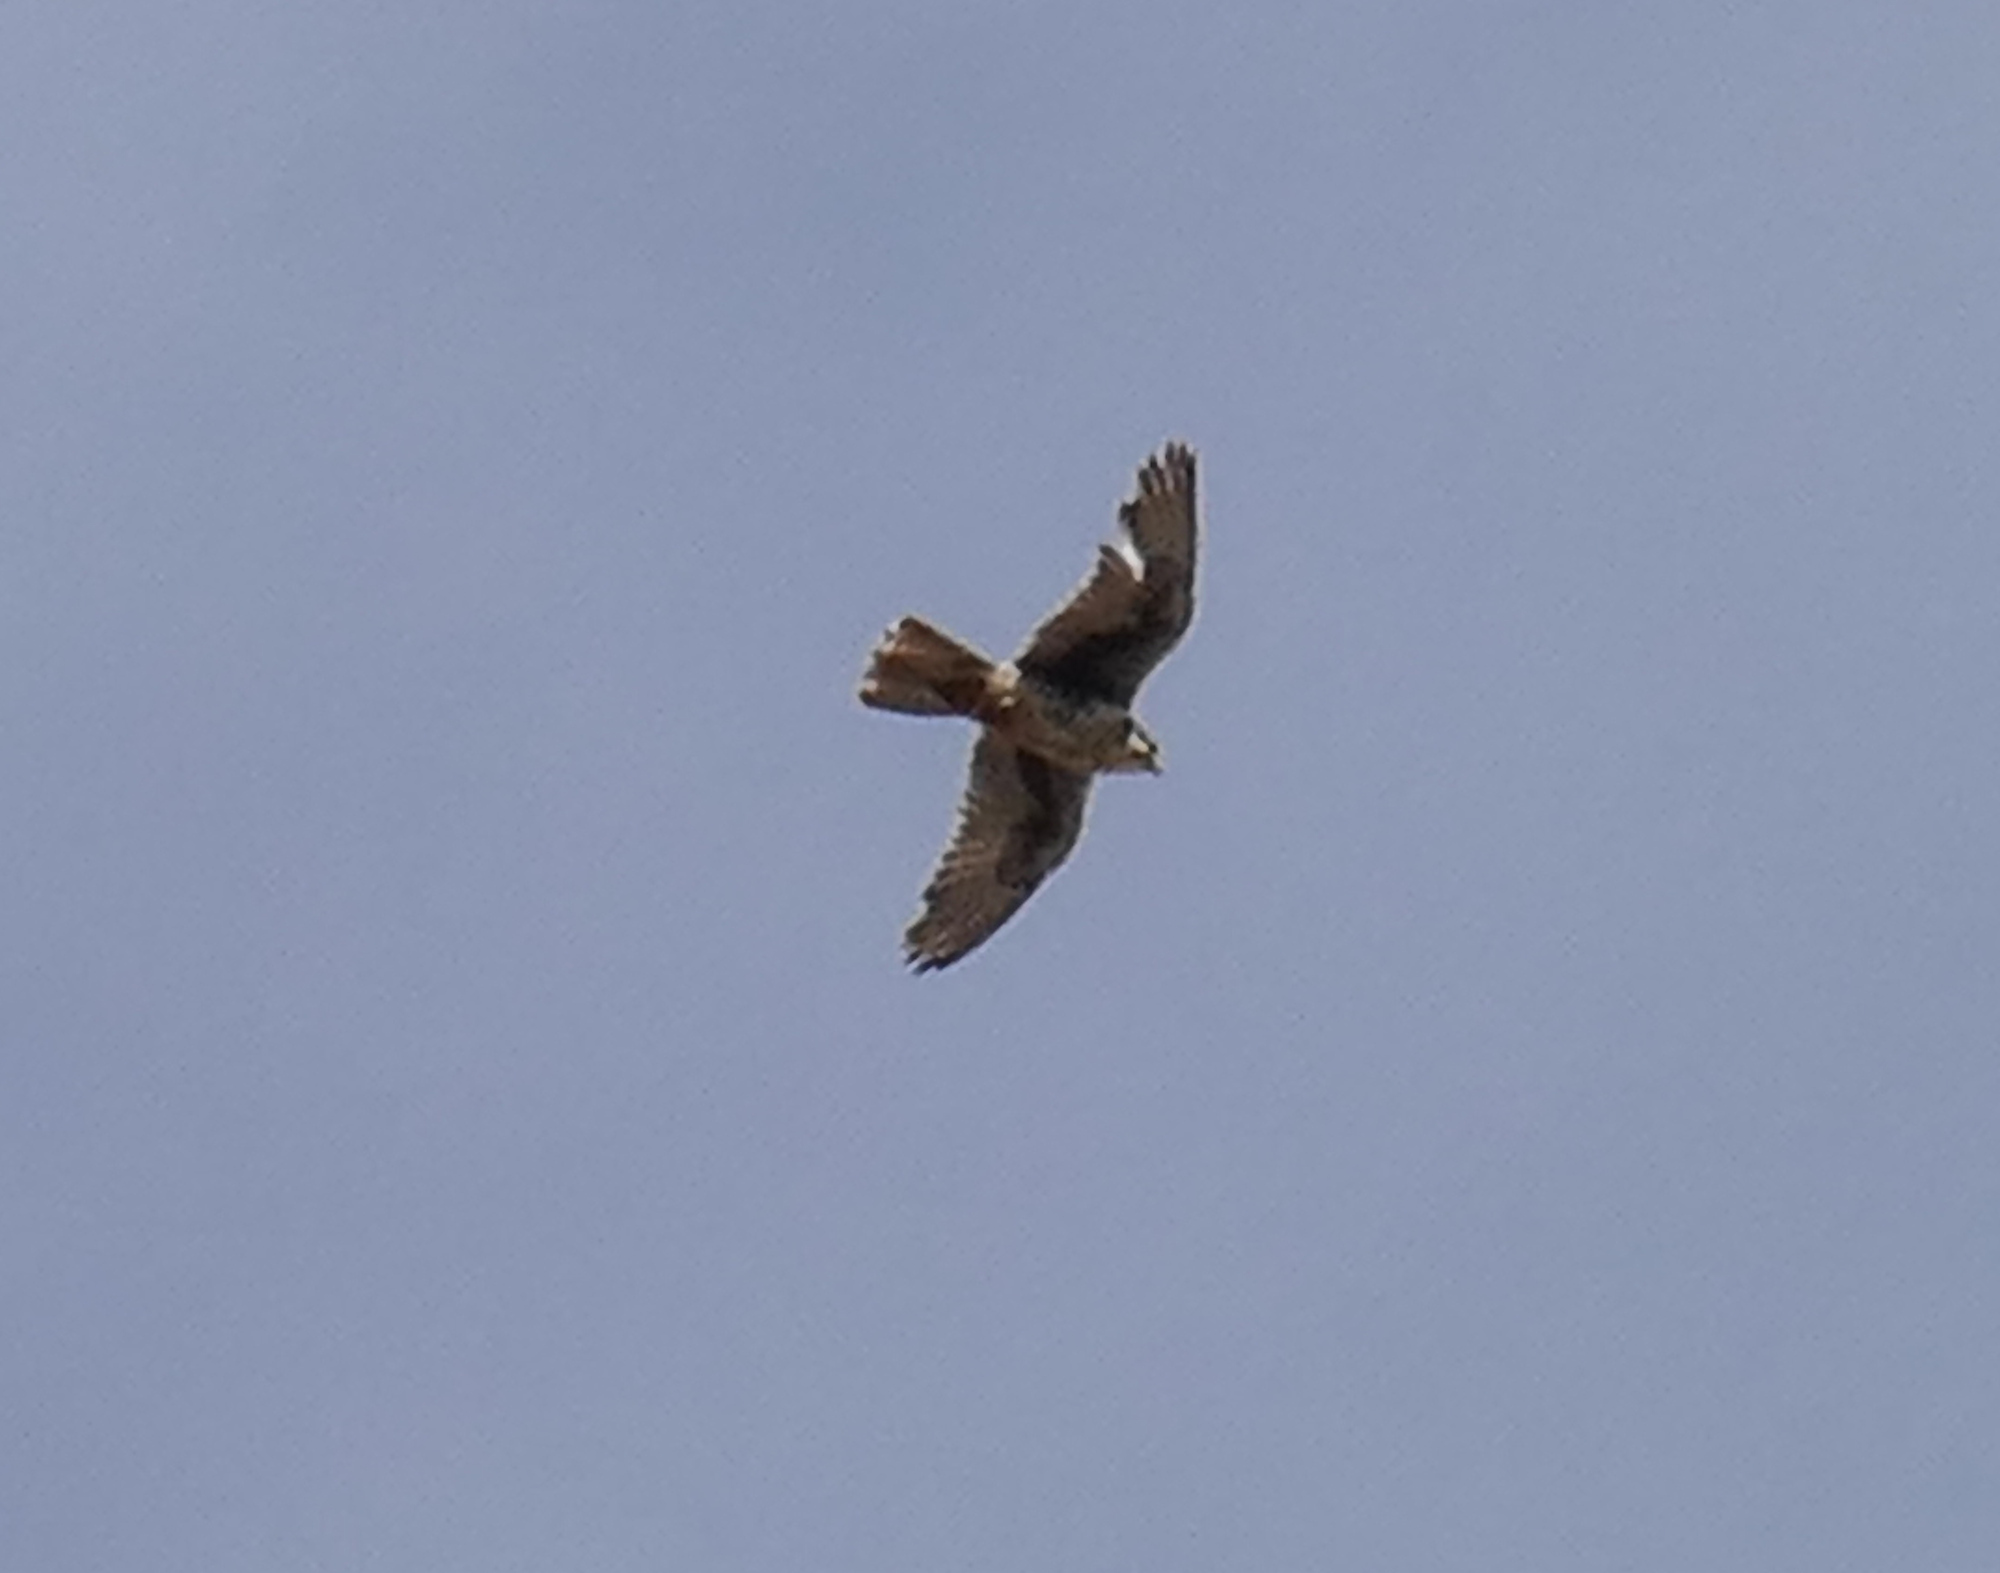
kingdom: Animalia
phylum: Chordata
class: Aves
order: Falconiformes
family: Falconidae
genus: Falco
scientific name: Falco mexicanus
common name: Prairie falcon
